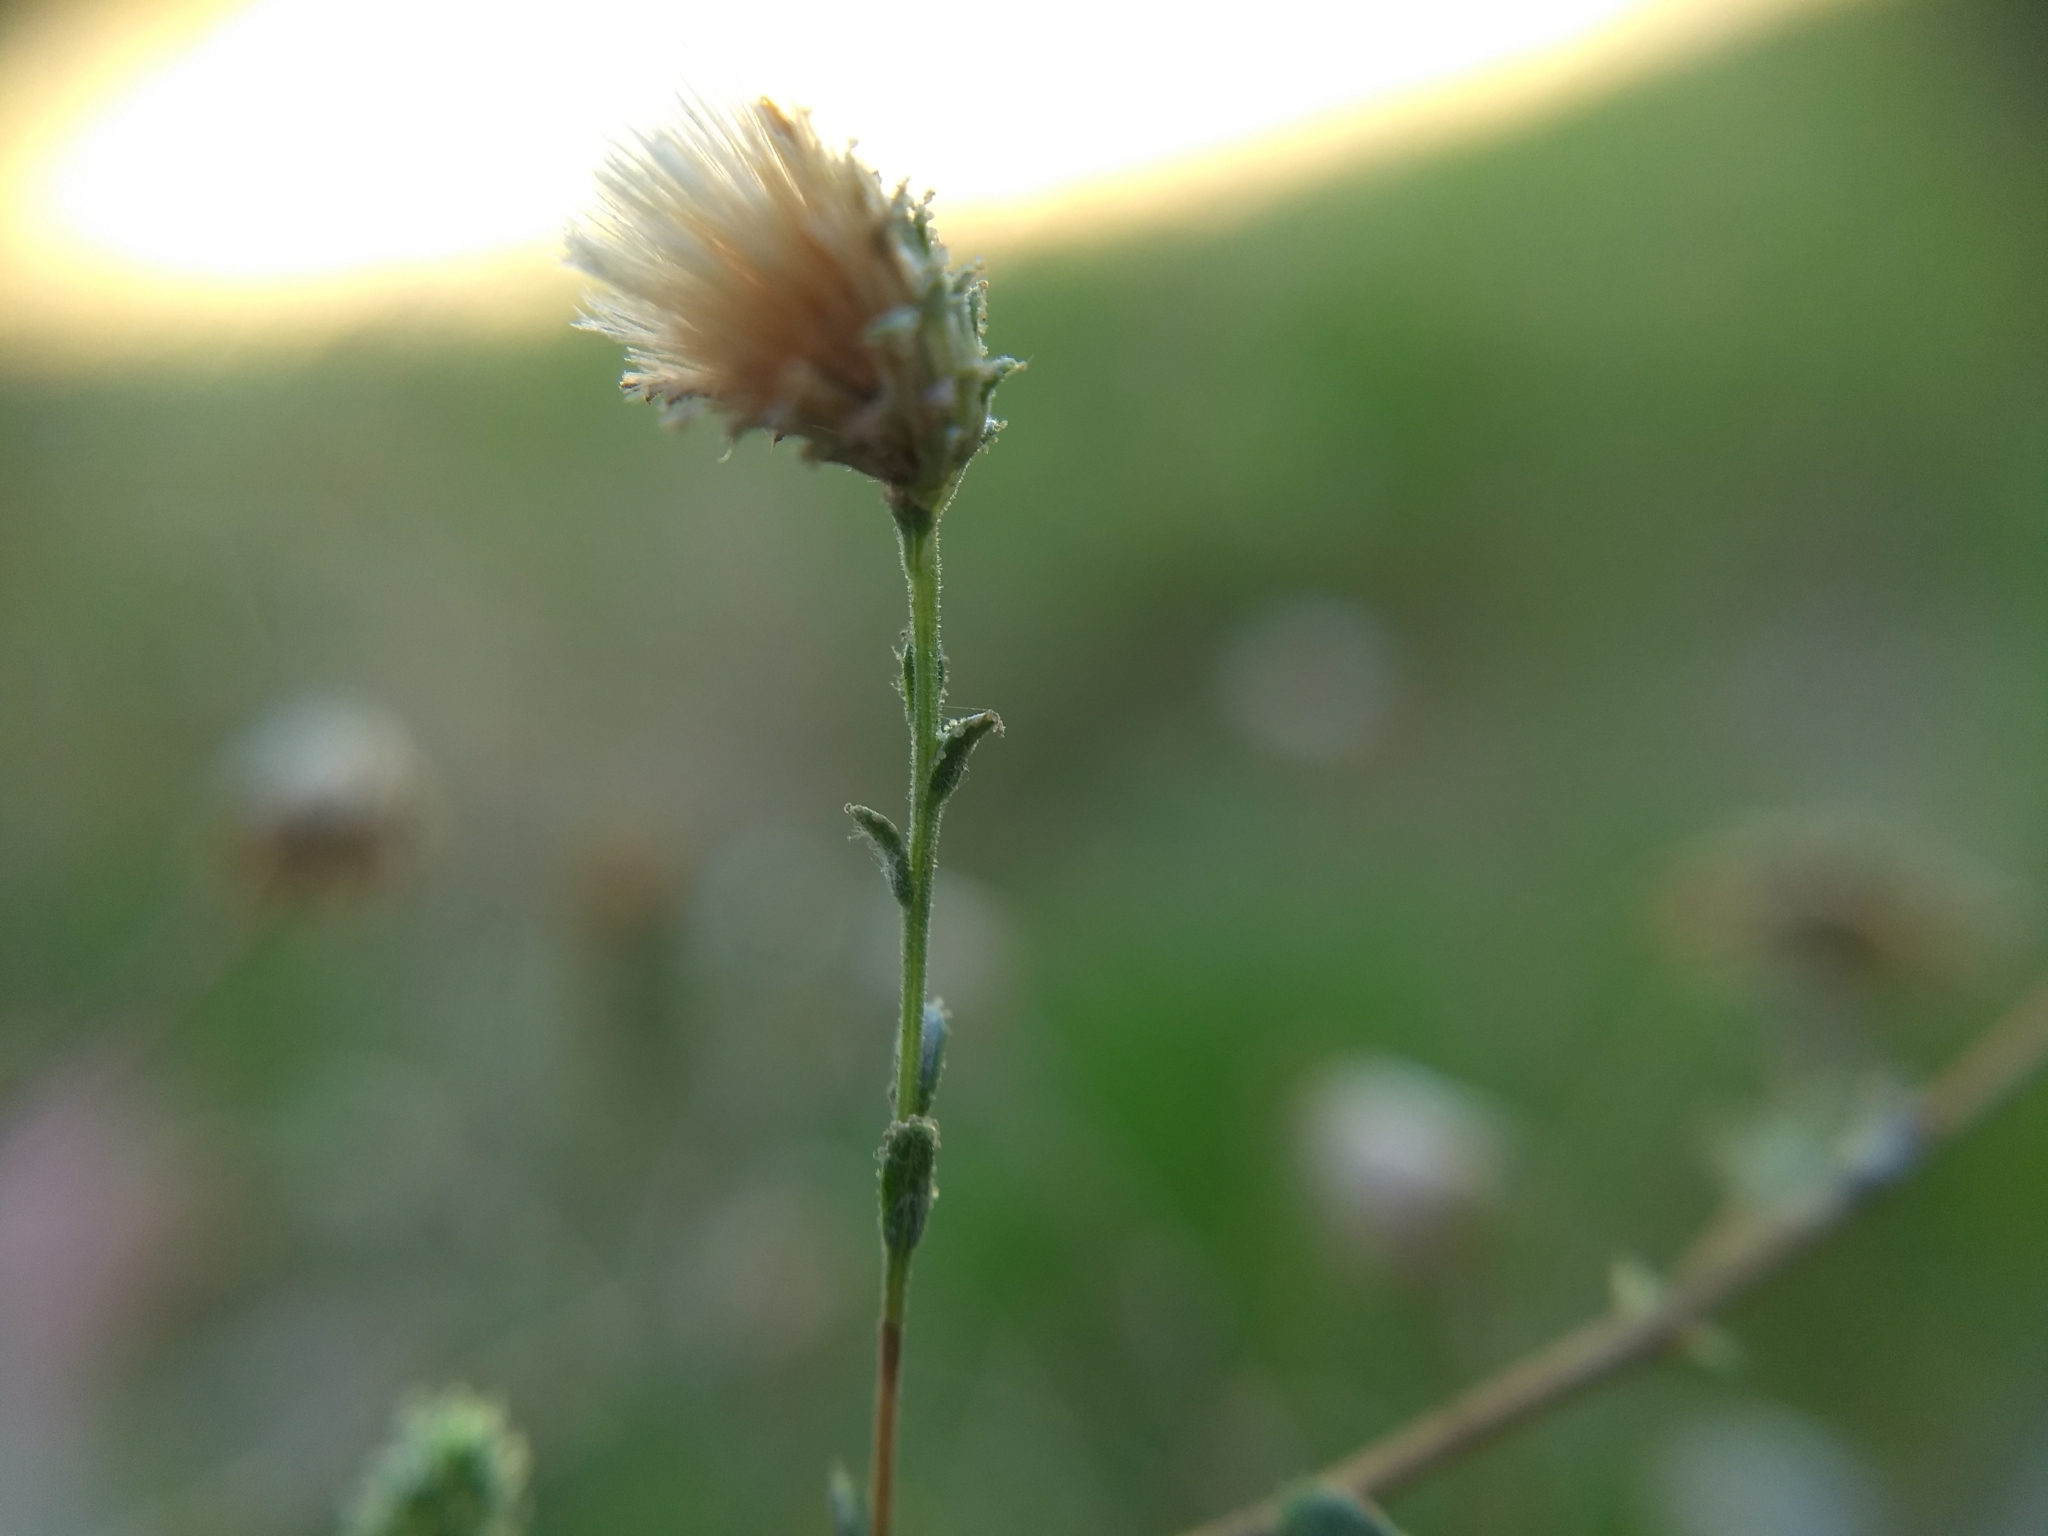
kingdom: Plantae
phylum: Tracheophyta
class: Magnoliopsida
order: Asterales
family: Asteraceae
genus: Lessingia
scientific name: Lessingia glandulifera
